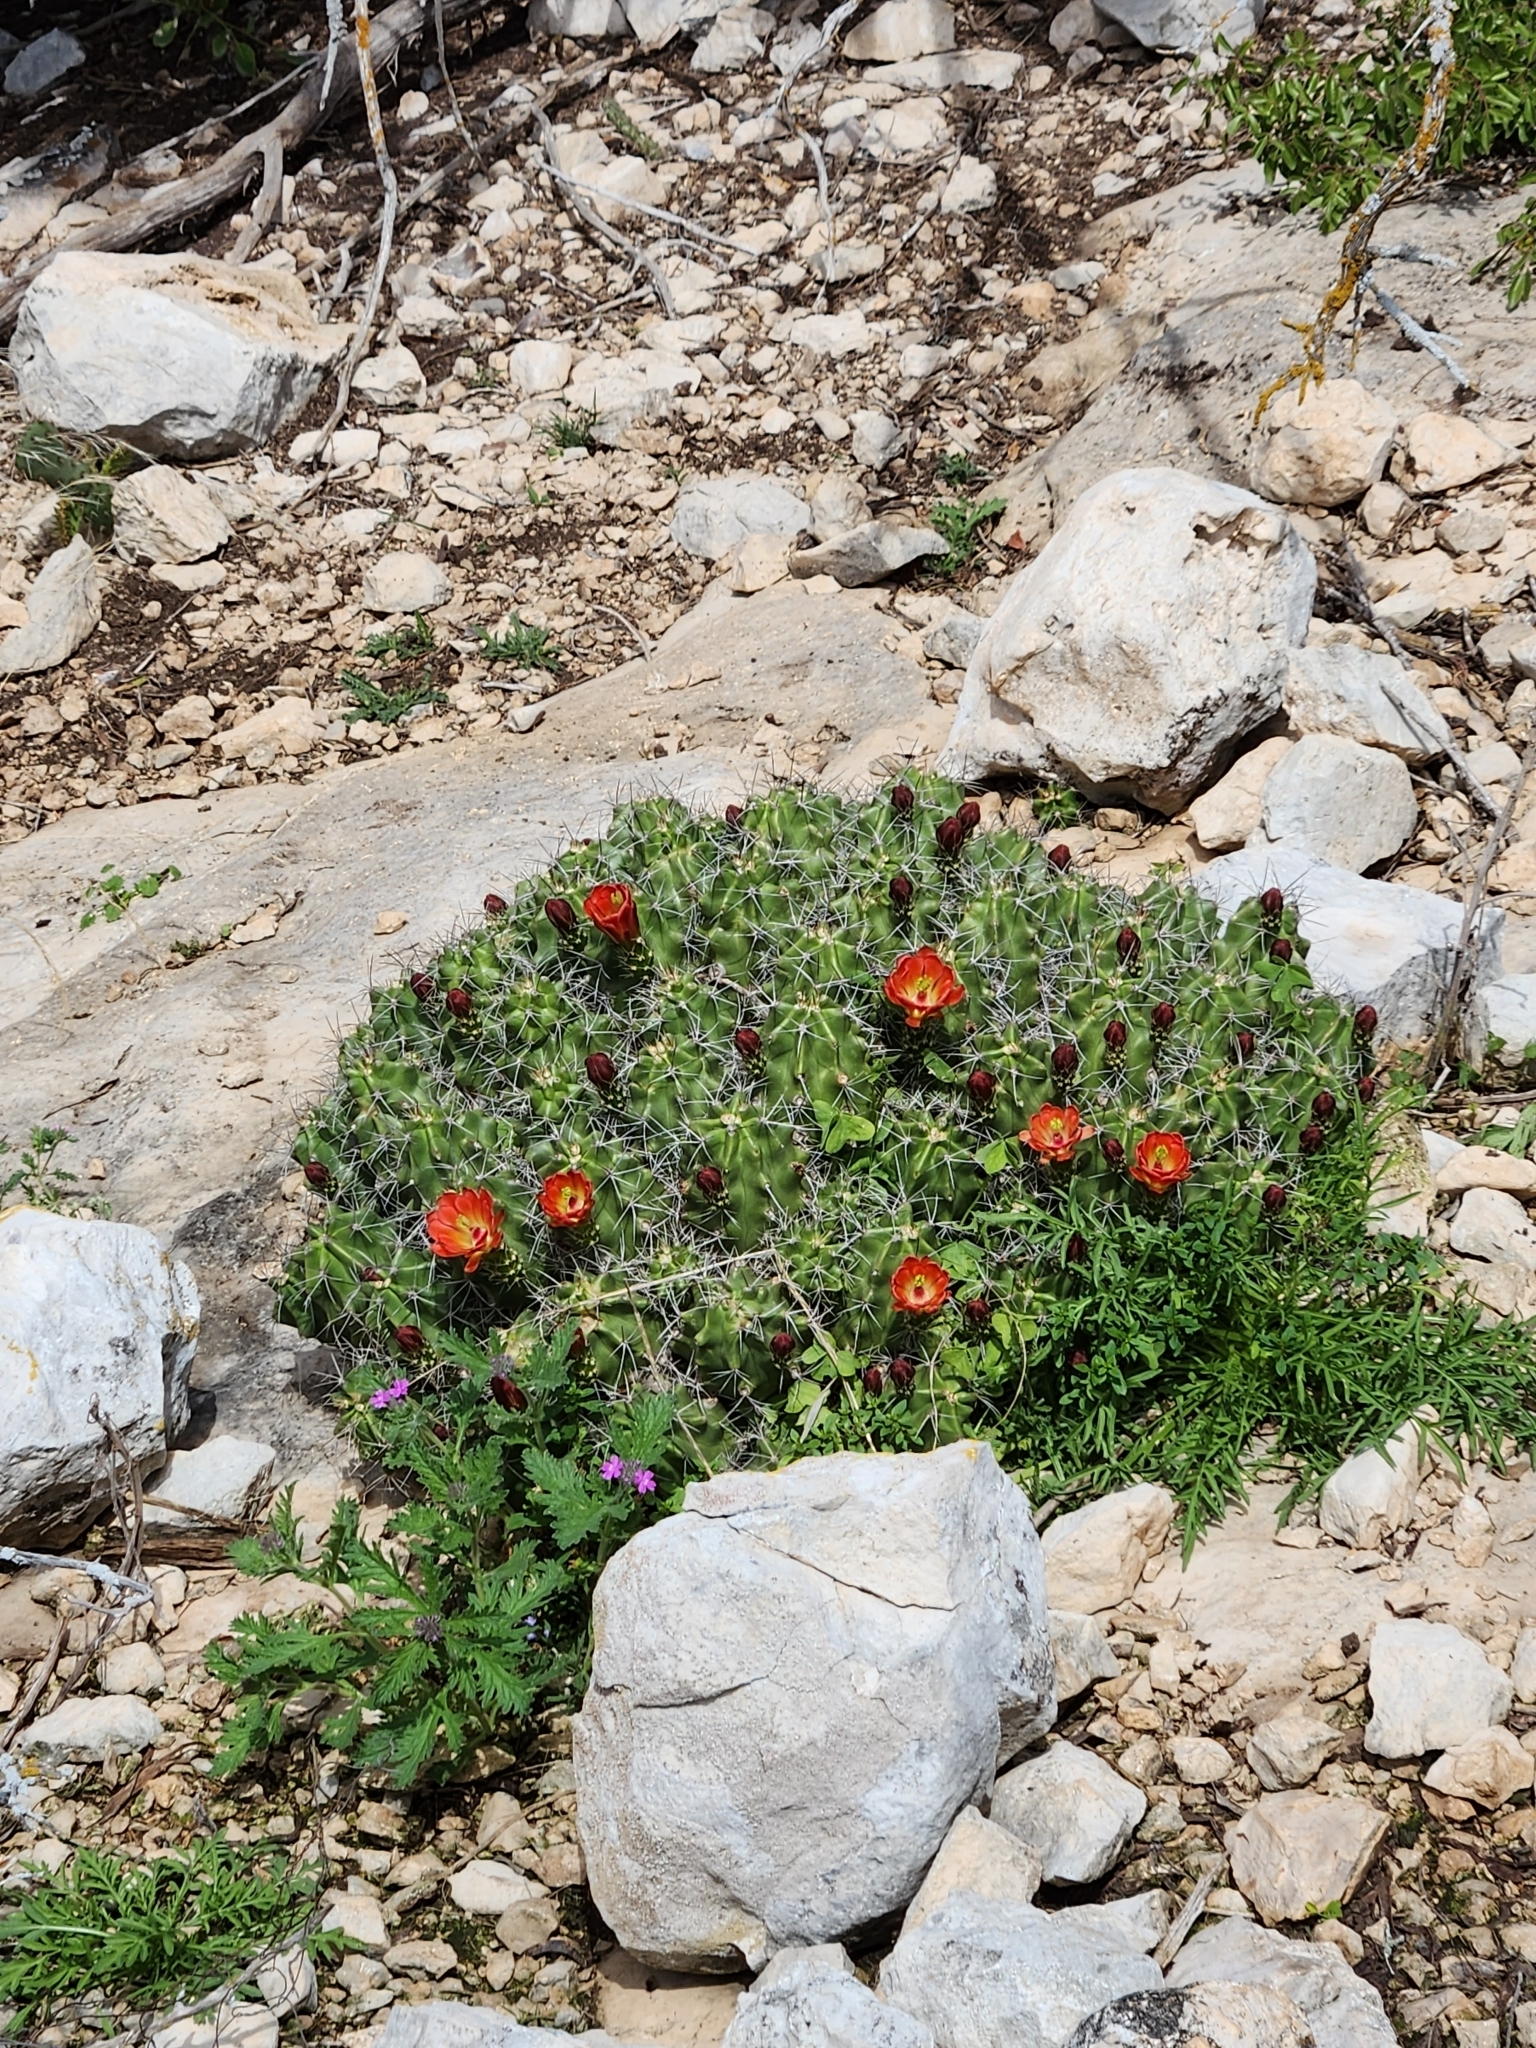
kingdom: Plantae
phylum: Tracheophyta
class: Magnoliopsida
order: Caryophyllales
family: Cactaceae
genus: Echinocereus
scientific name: Echinocereus coccineus
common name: Scarlet hedgehog cactus
